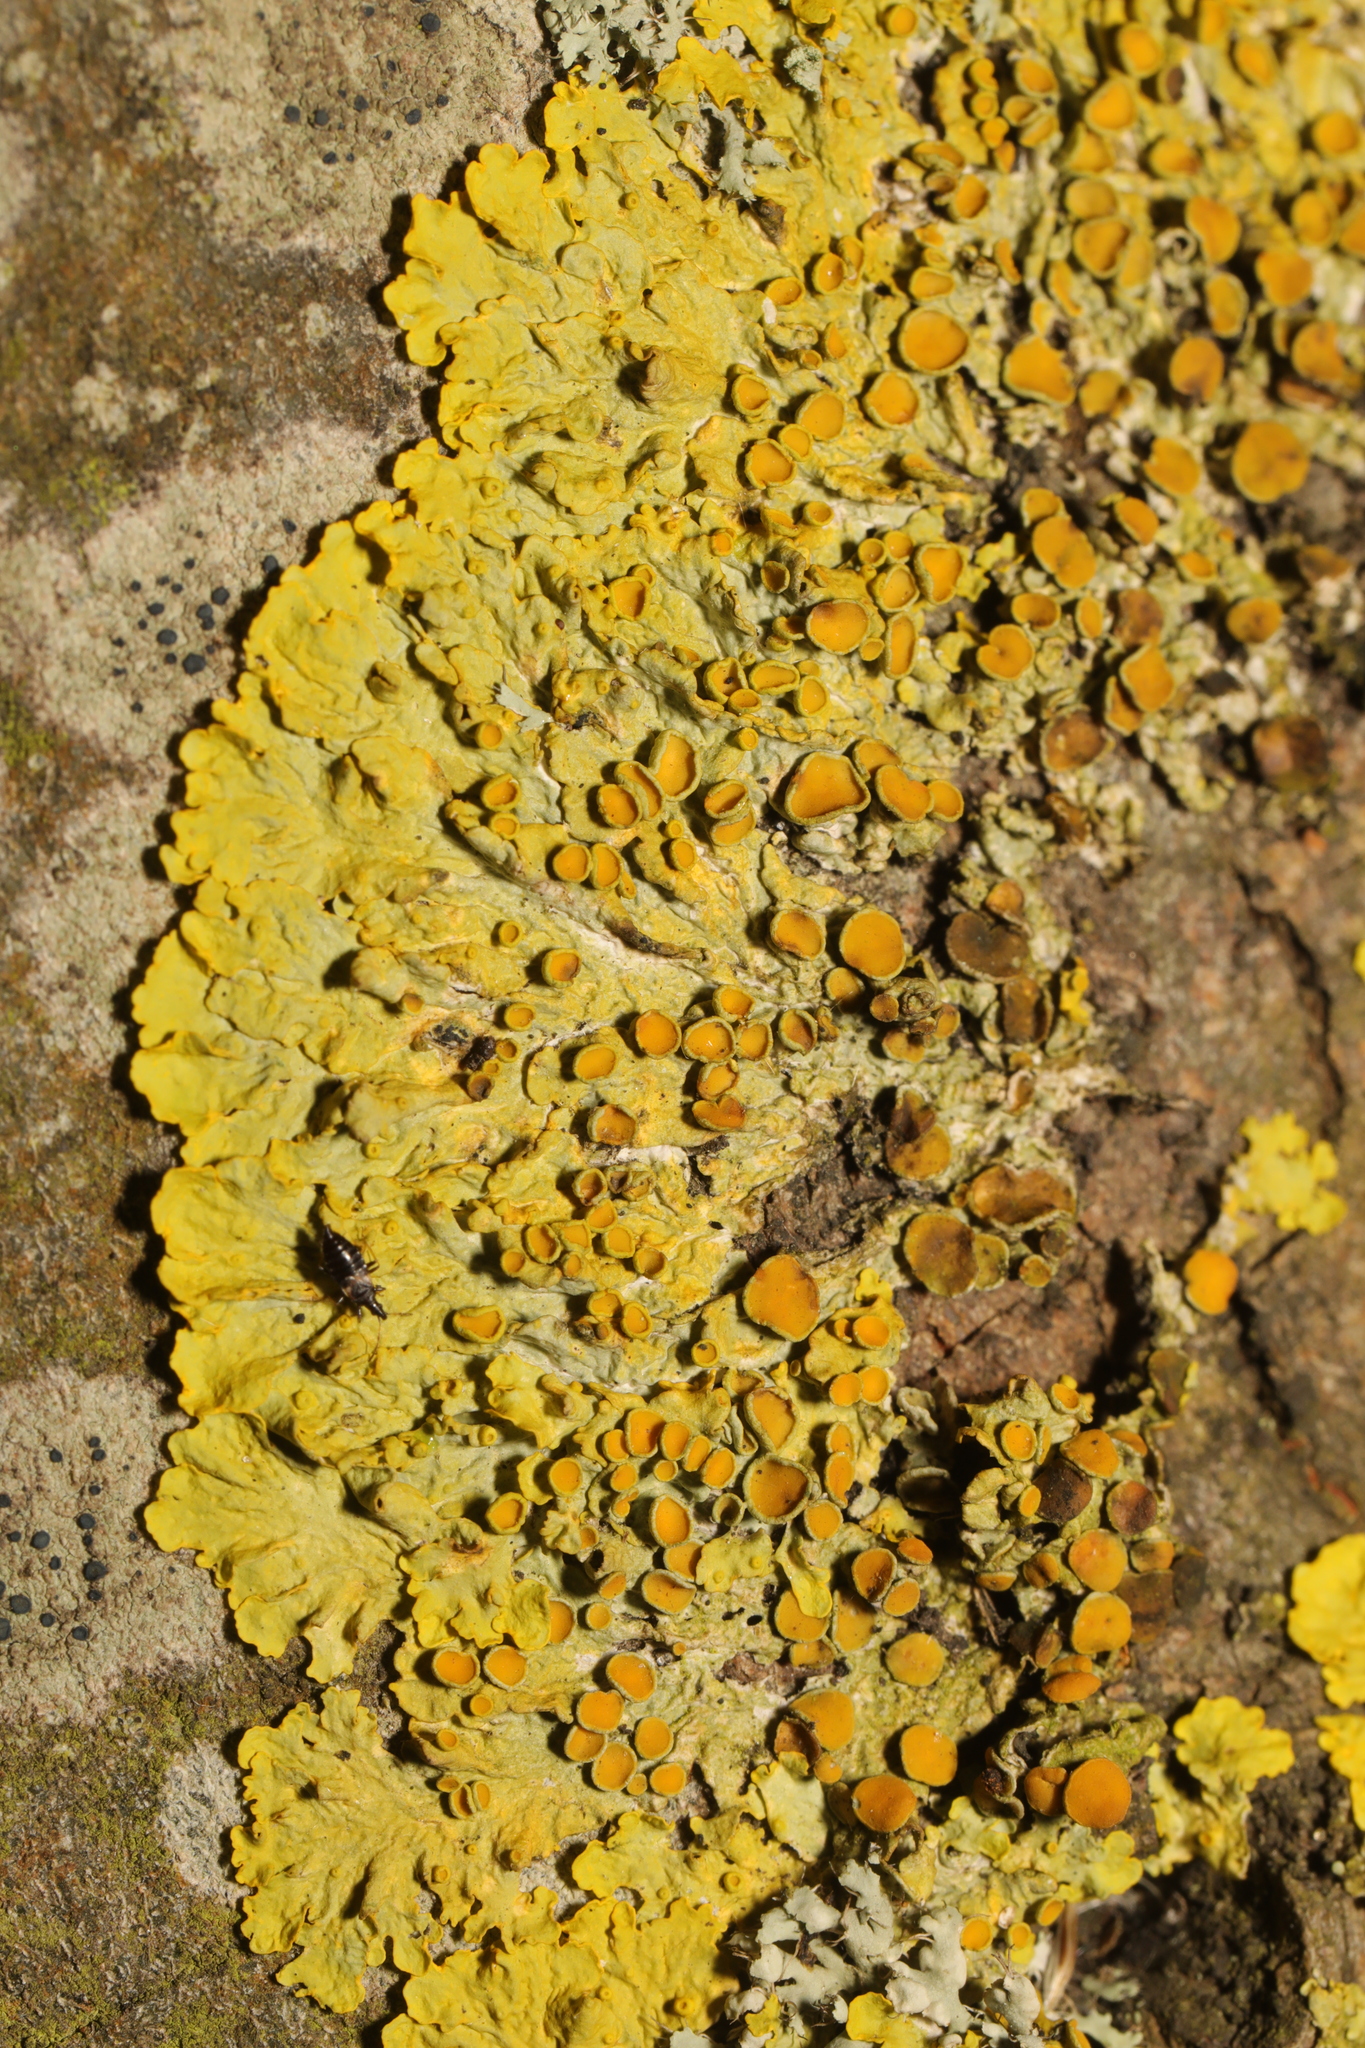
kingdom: Fungi
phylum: Ascomycota
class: Lecanoromycetes
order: Teloschistales
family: Teloschistaceae
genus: Xanthoria
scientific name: Xanthoria parietina
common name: Common orange lichen
